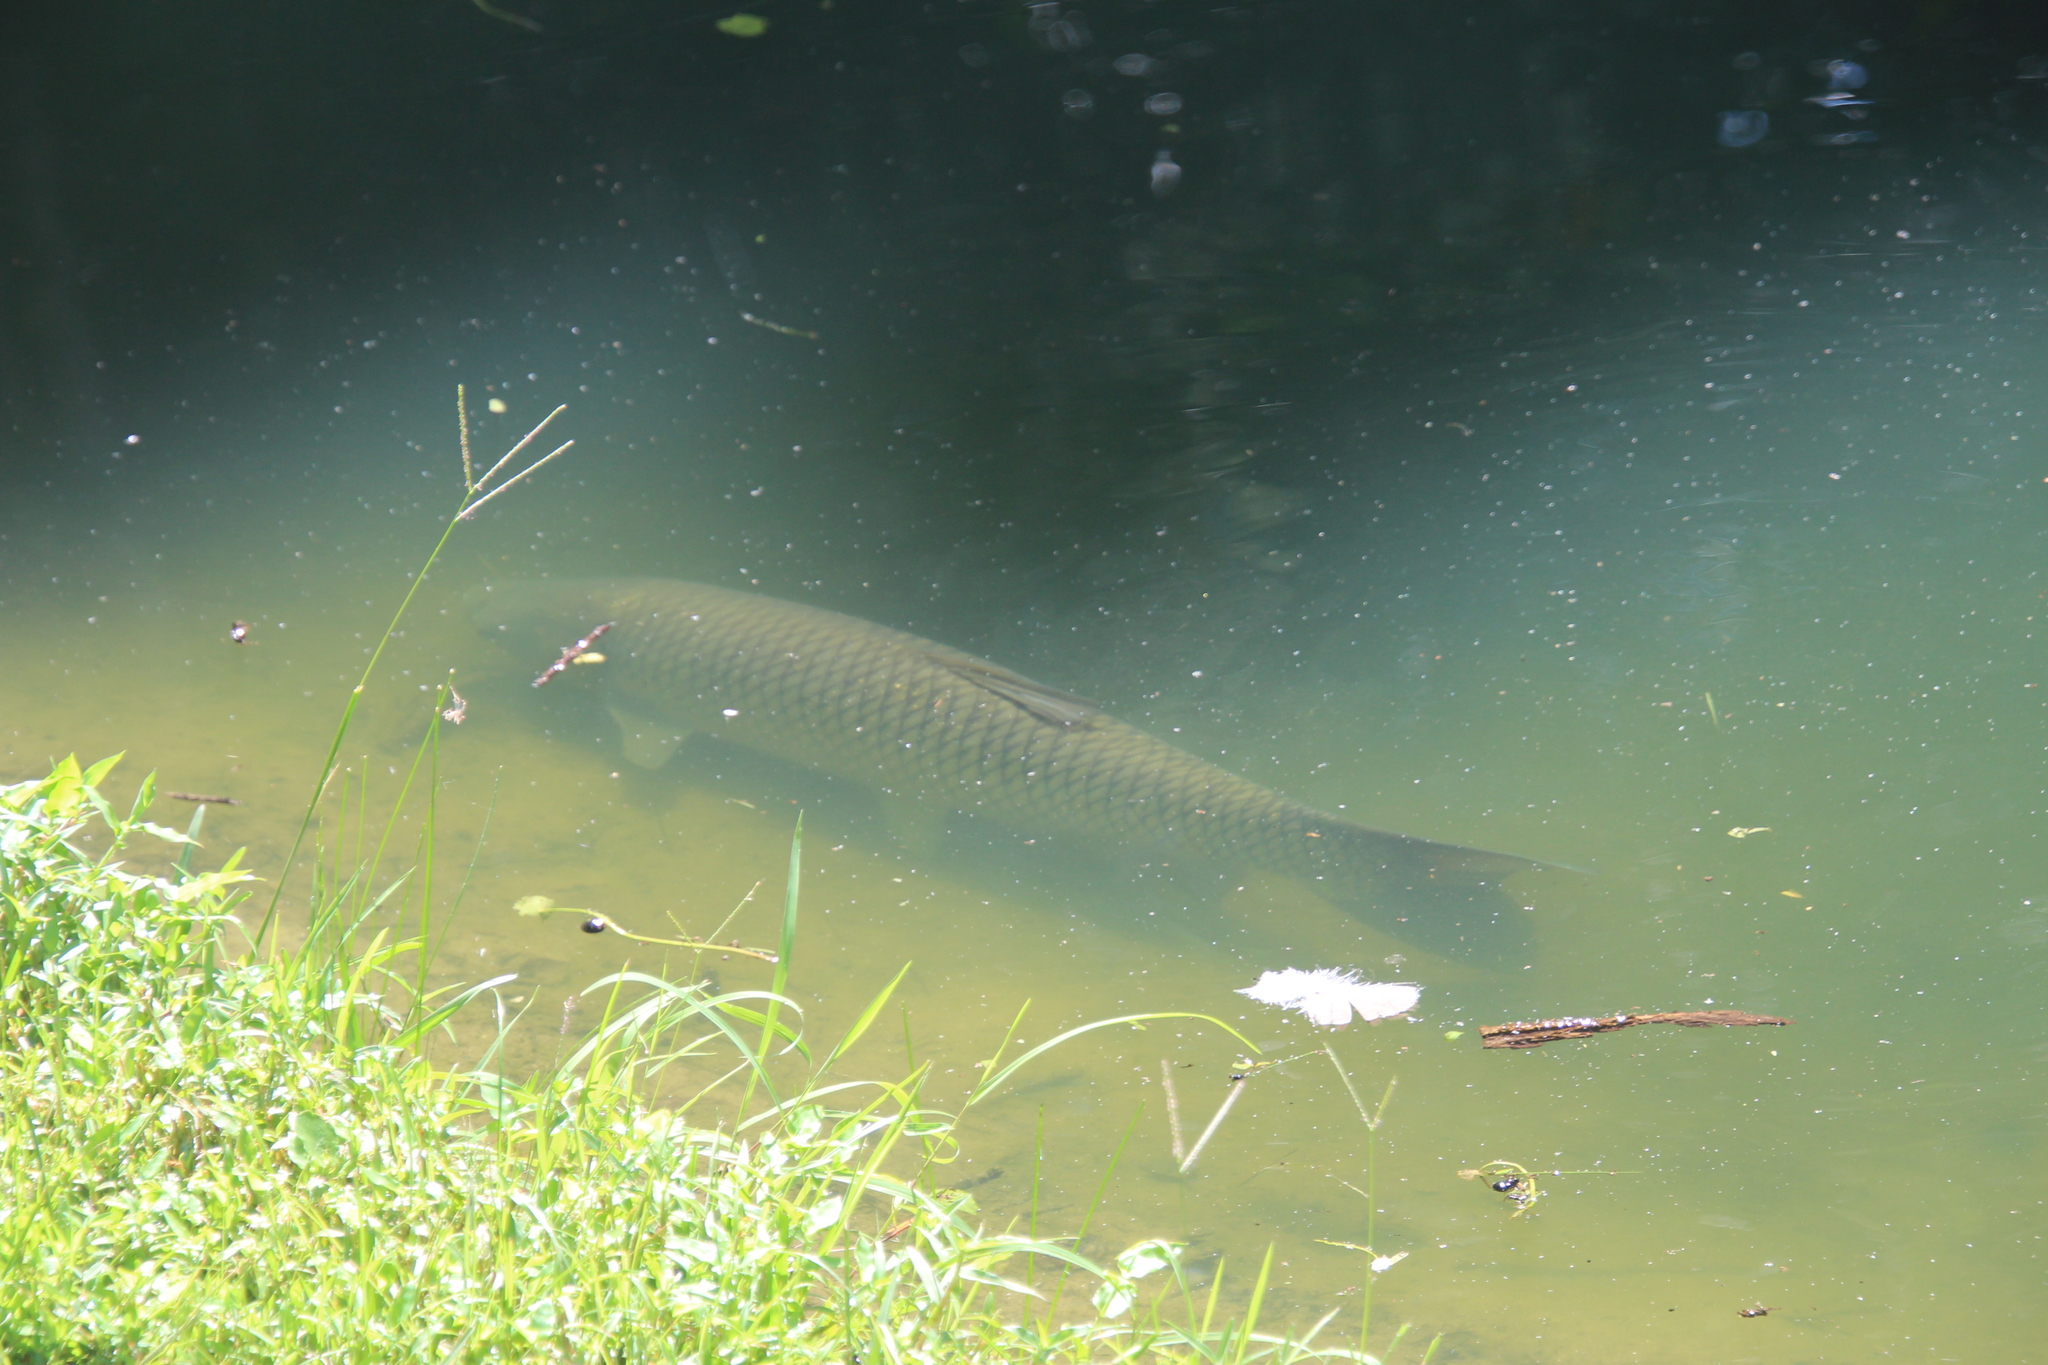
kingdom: Animalia
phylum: Chordata
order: Cypriniformes
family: Cyprinidae
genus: Ctenopharyngodon
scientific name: Ctenopharyngodon idella
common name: Grass carp
